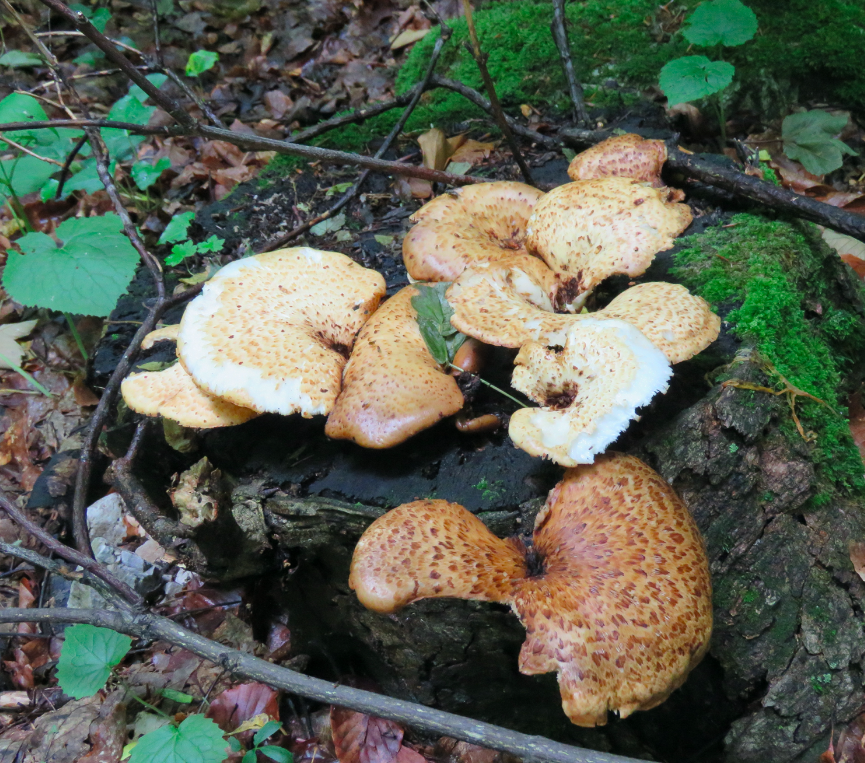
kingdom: Fungi
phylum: Basidiomycota
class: Agaricomycetes
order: Polyporales
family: Polyporaceae
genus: Cerioporus
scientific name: Cerioporus squamosus
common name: Dryad's saddle
